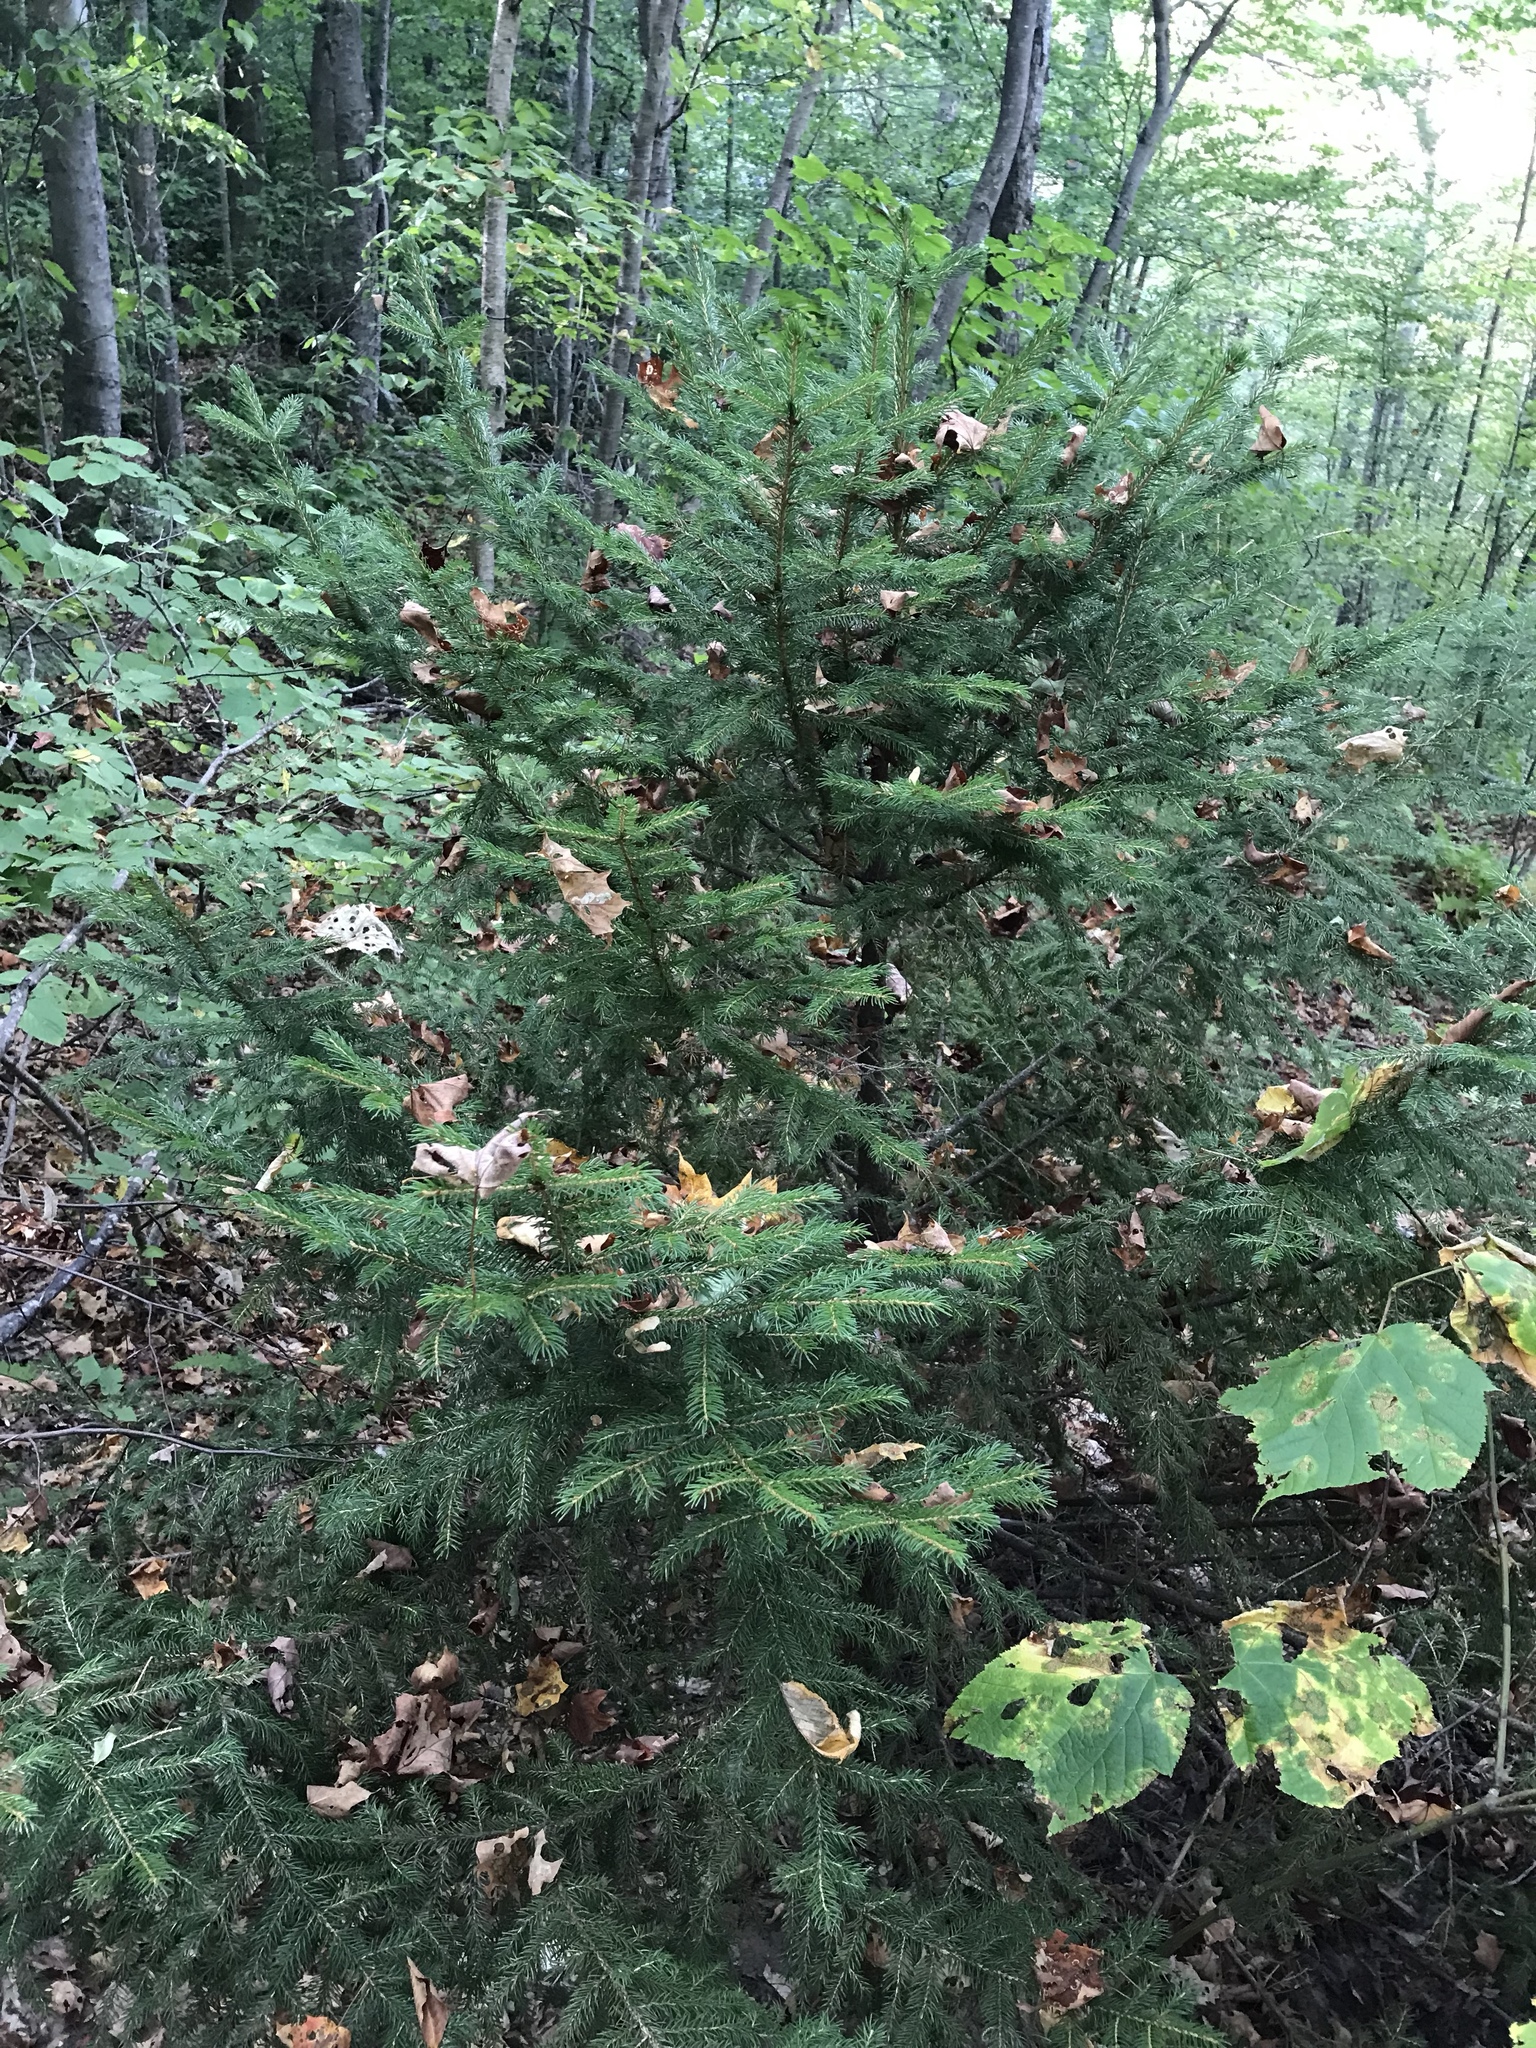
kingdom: Plantae
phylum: Tracheophyta
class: Pinopsida
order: Pinales
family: Pinaceae
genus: Picea
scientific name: Picea rubens
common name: Red spruce
